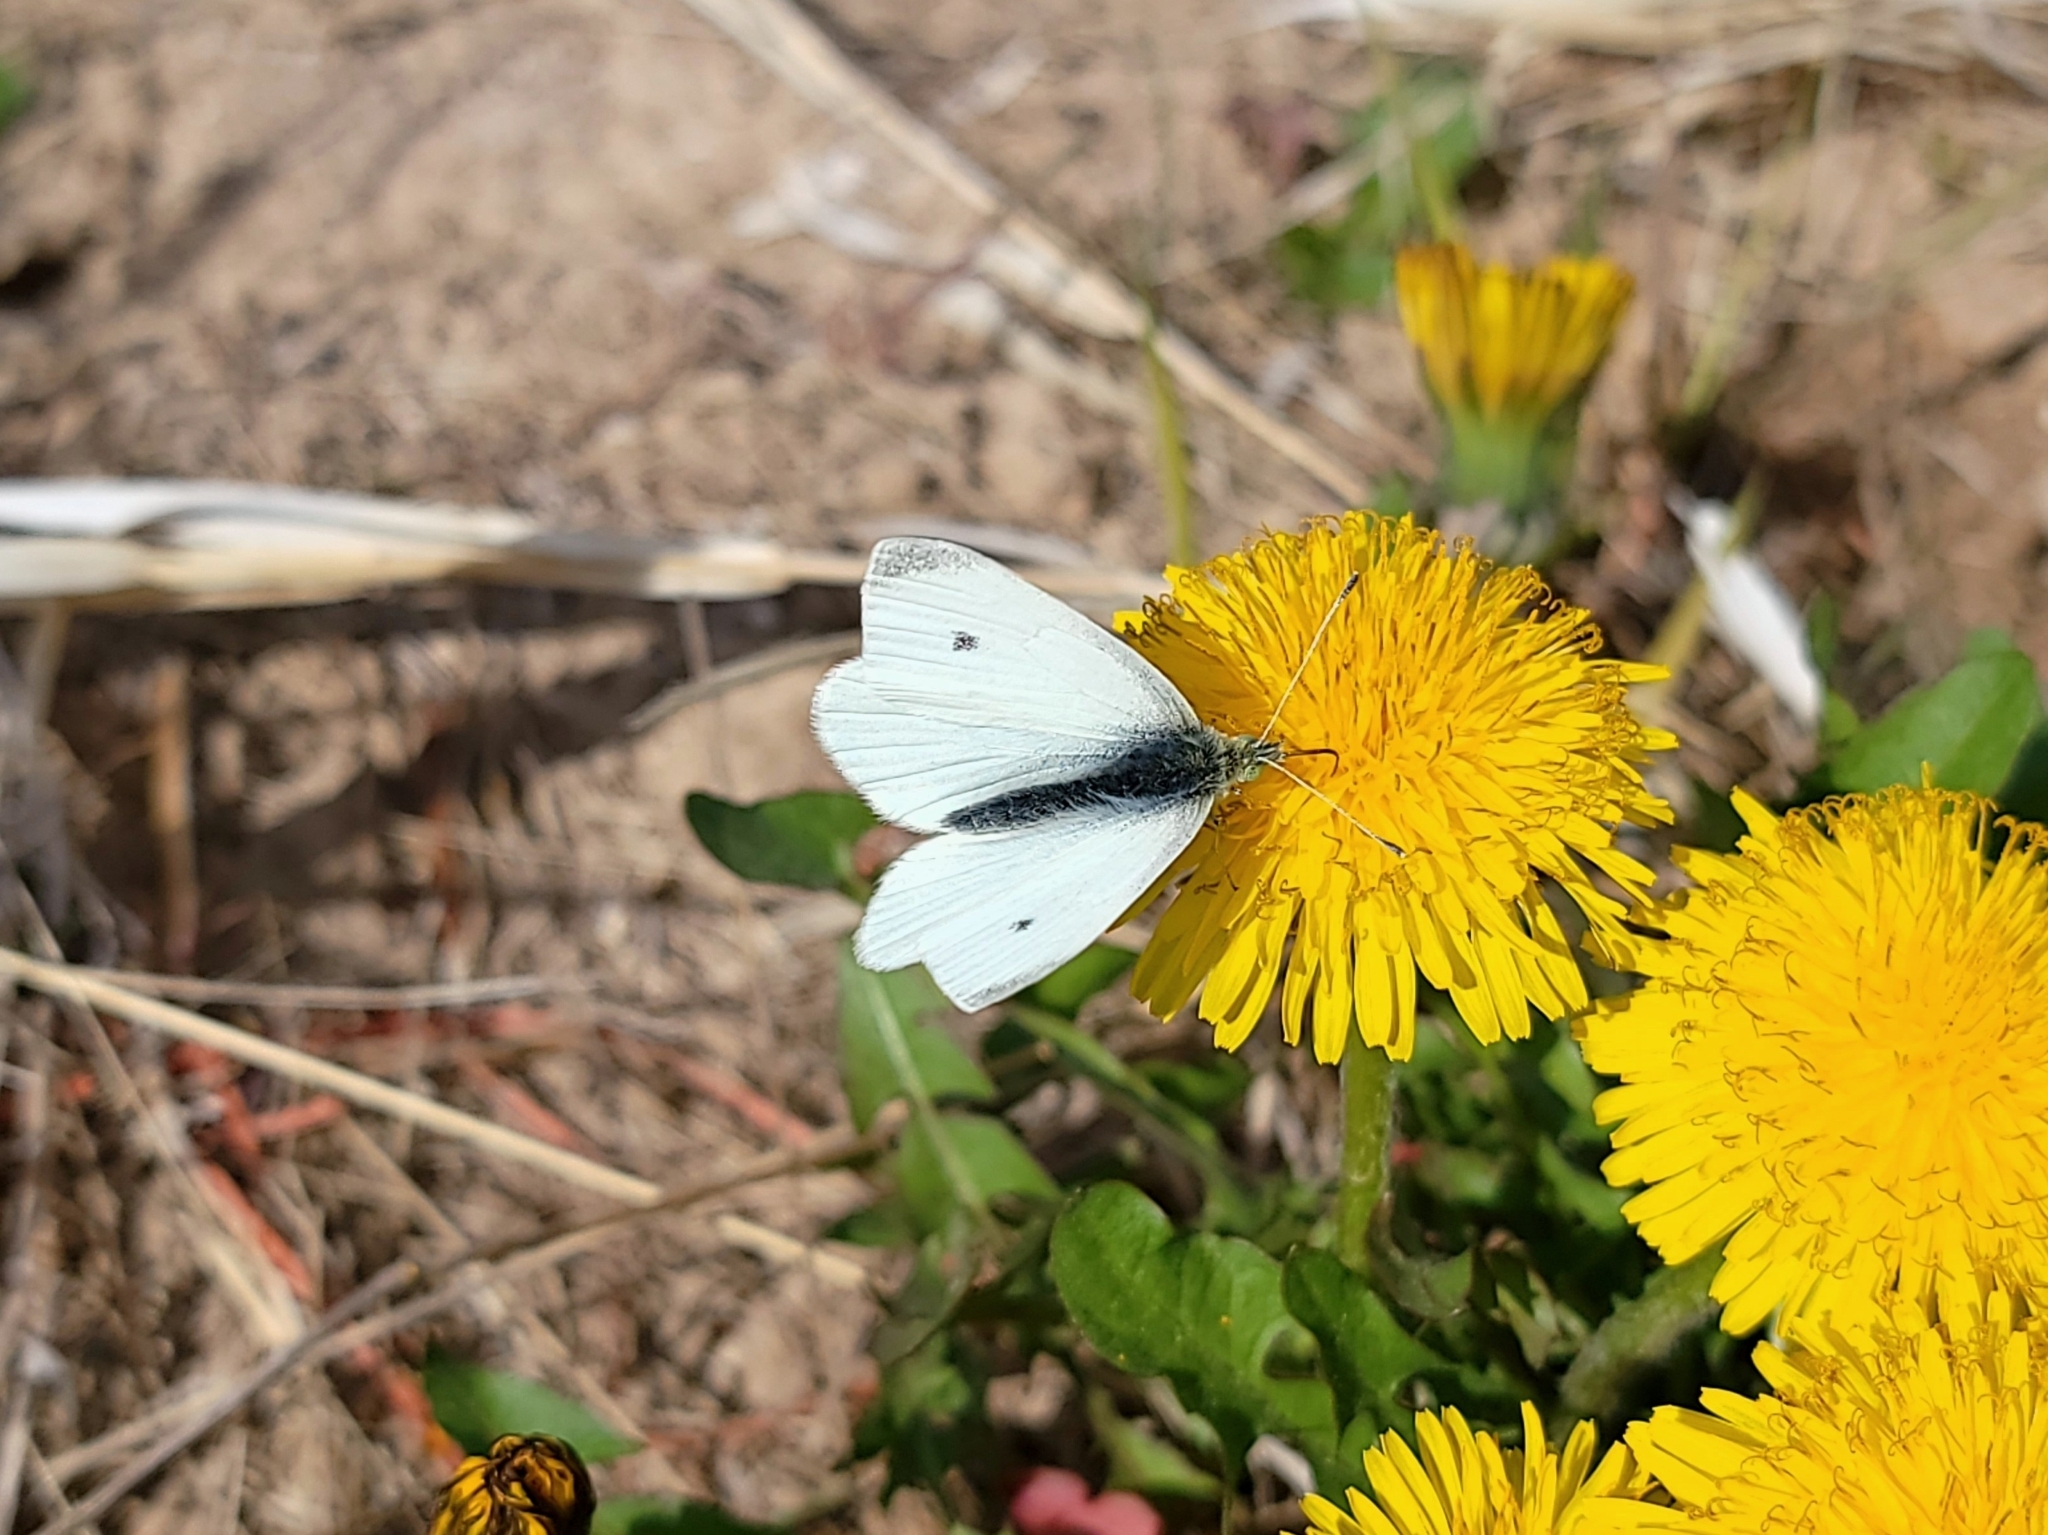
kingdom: Animalia
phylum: Arthropoda
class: Insecta
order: Lepidoptera
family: Pieridae
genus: Pieris
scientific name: Pieris rapae
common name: Small white
